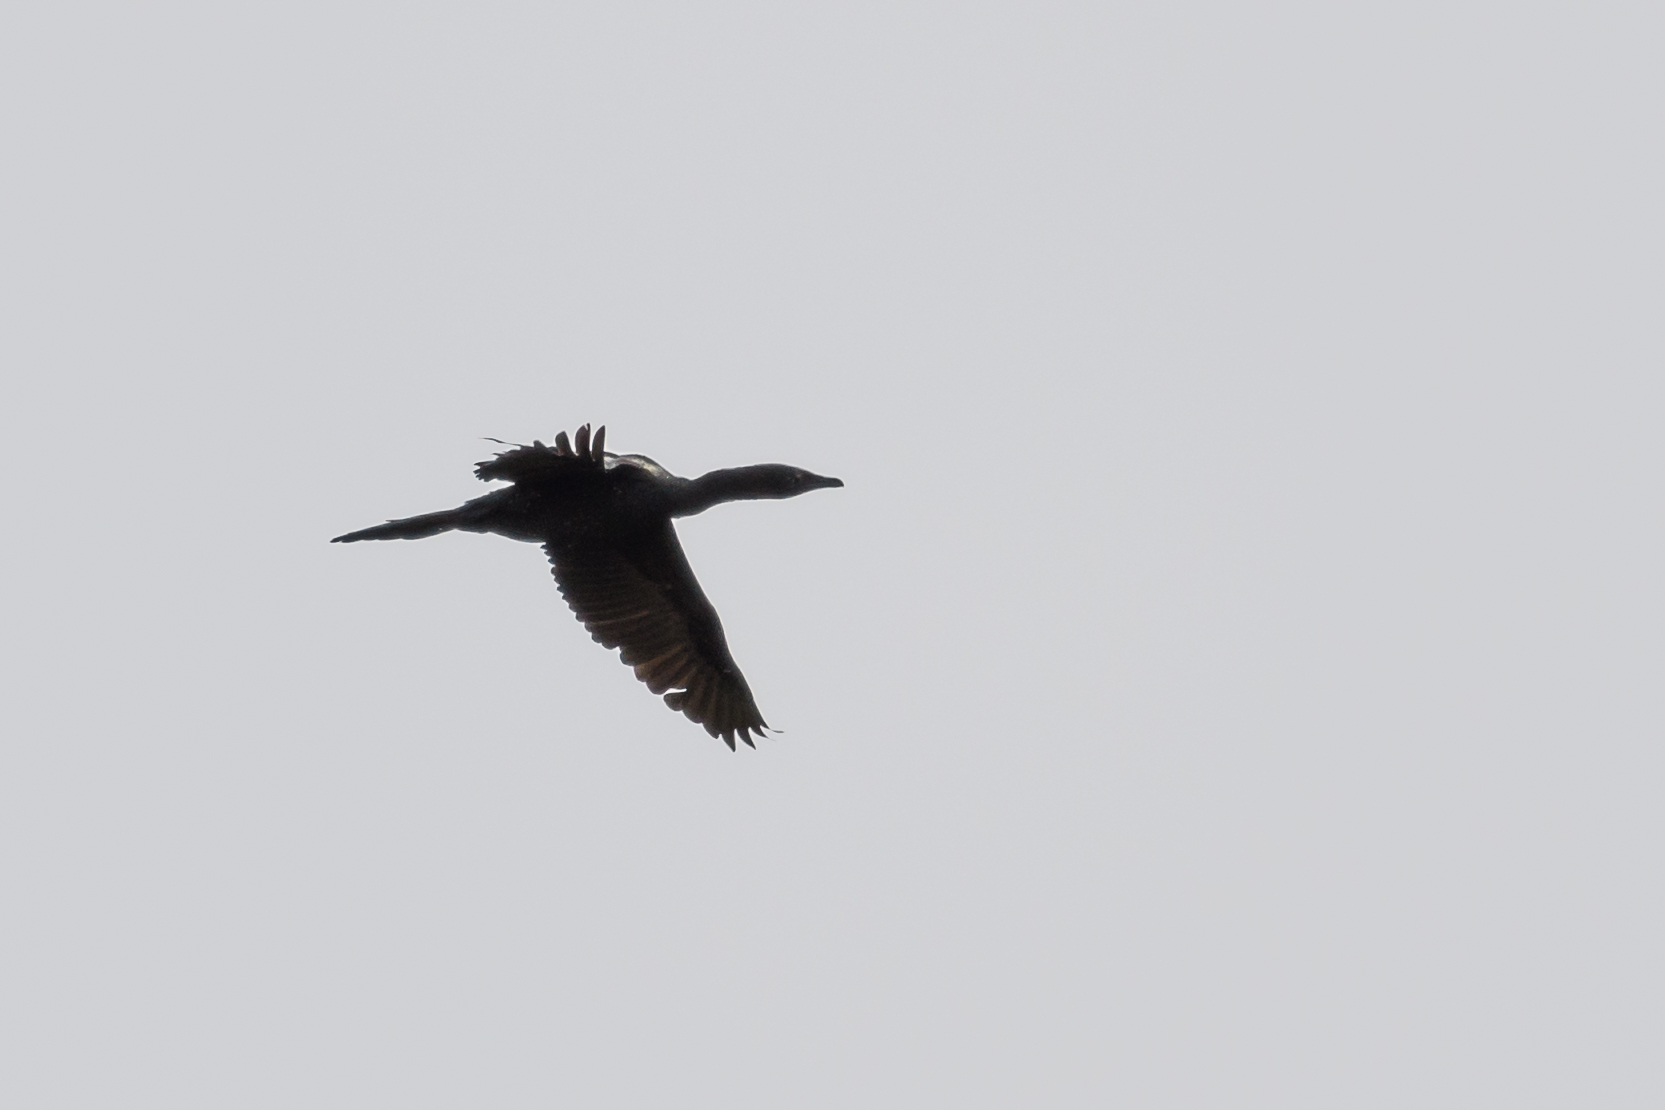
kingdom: Animalia
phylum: Chordata
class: Aves
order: Suliformes
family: Phalacrocoracidae
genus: Microcarbo
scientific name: Microcarbo pygmaeus
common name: Pygmy cormorant
